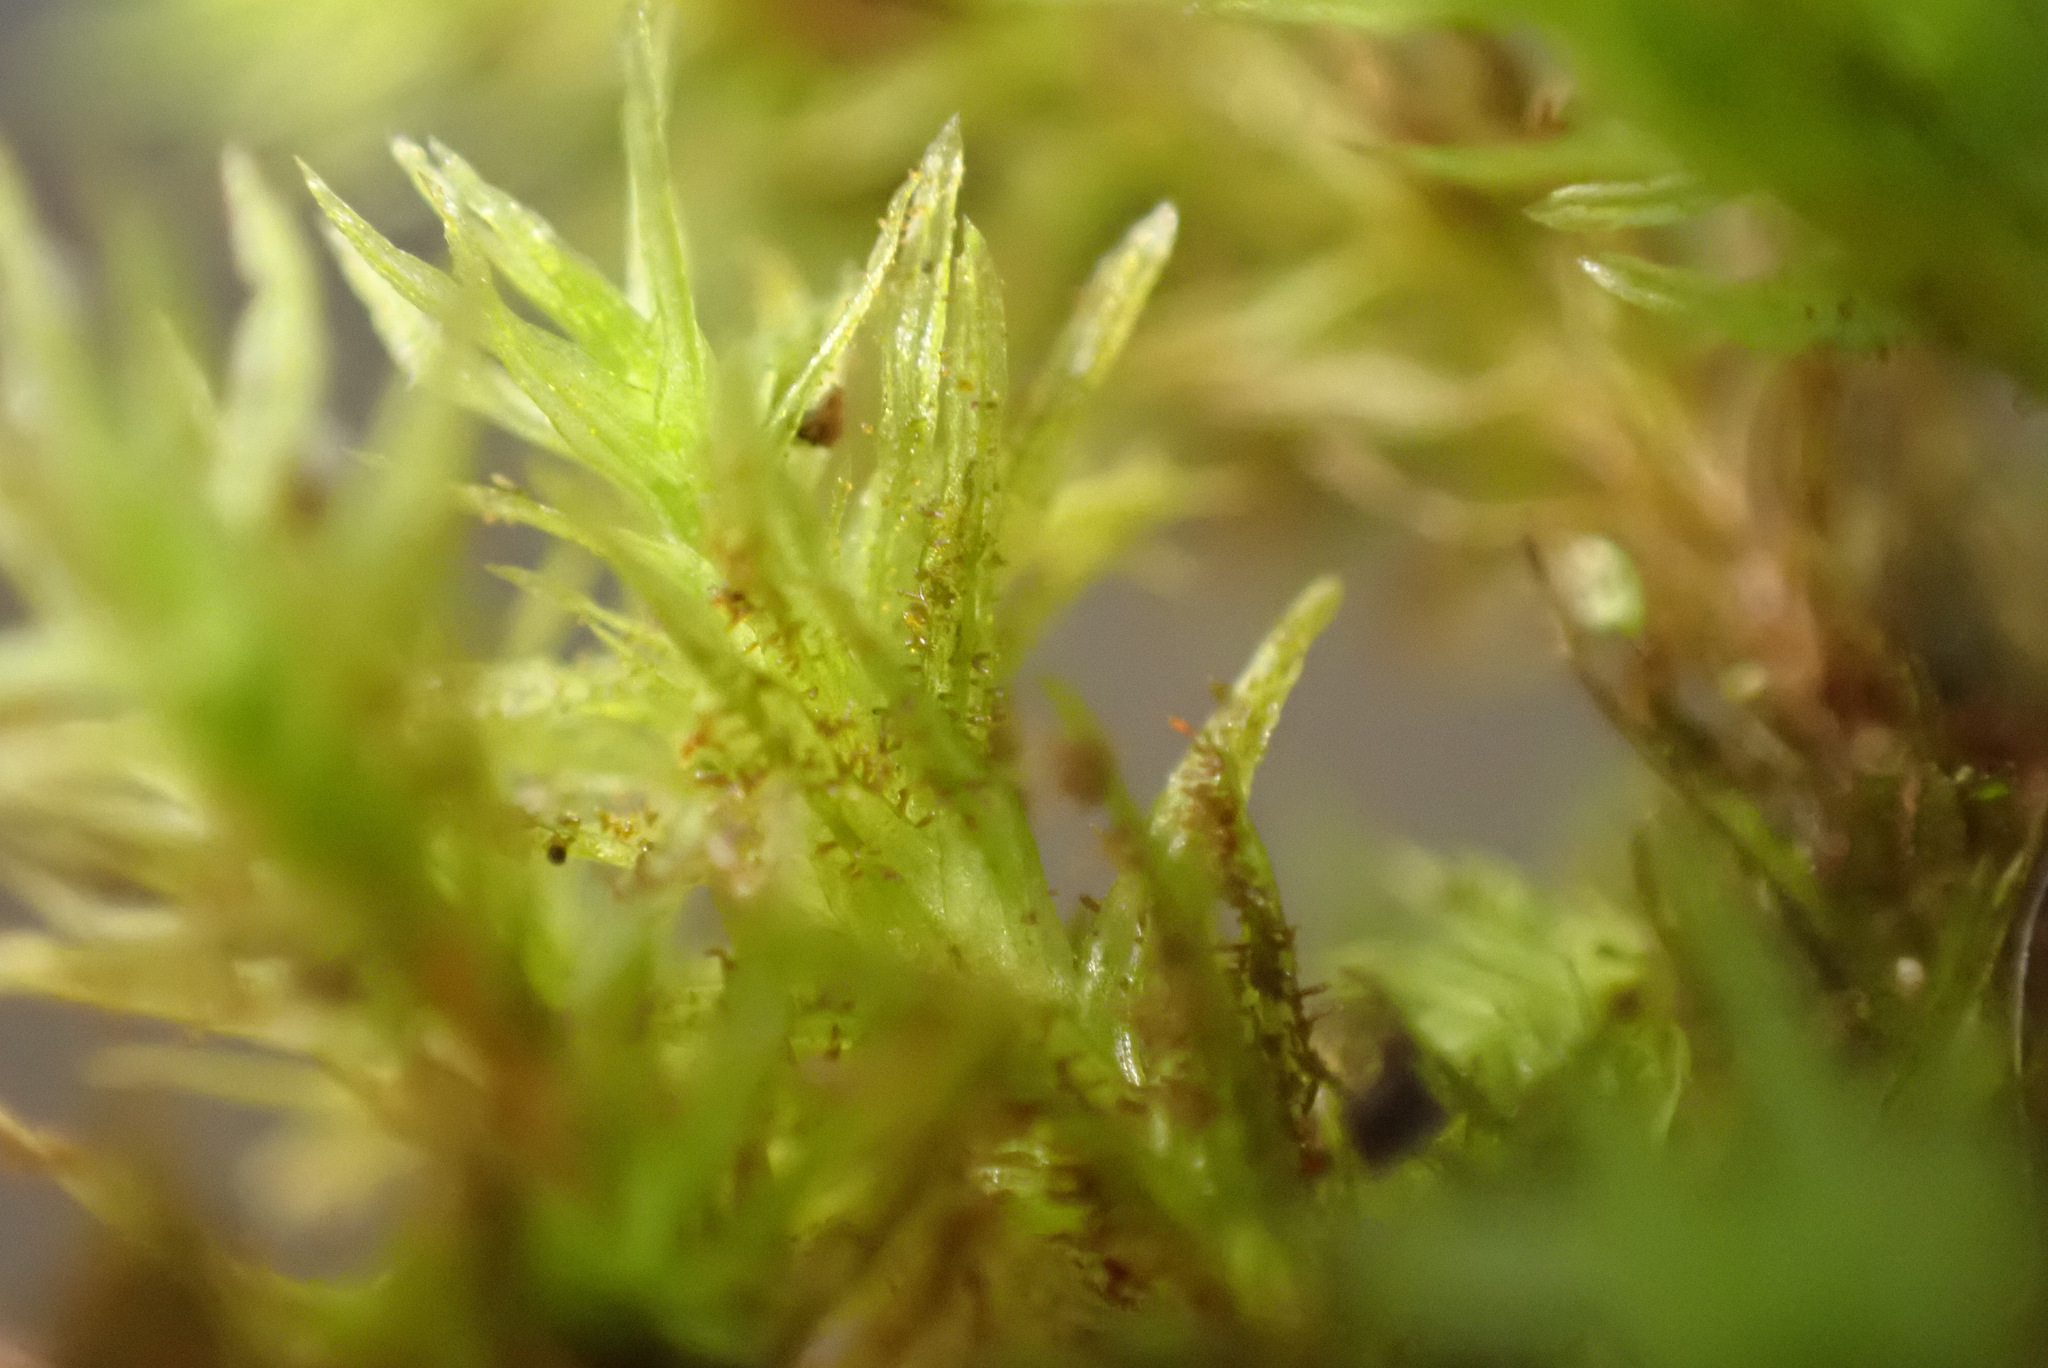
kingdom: Plantae
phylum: Bryophyta
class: Bryopsida
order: Orthotrichales
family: Orthotrichaceae
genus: Pulvigera
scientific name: Pulvigera lyellii
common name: Lyell's bristle-moss
